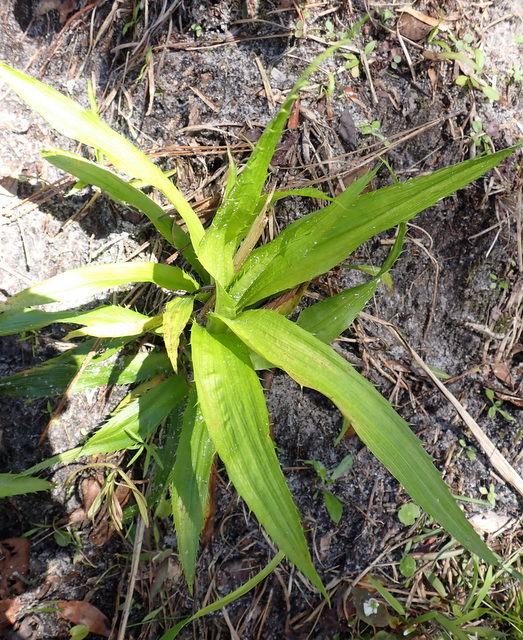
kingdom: Plantae
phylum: Tracheophyta
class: Magnoliopsida
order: Apiales
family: Apiaceae
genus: Eryngium
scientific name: Eryngium yuccifolium
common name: Button eryngo
